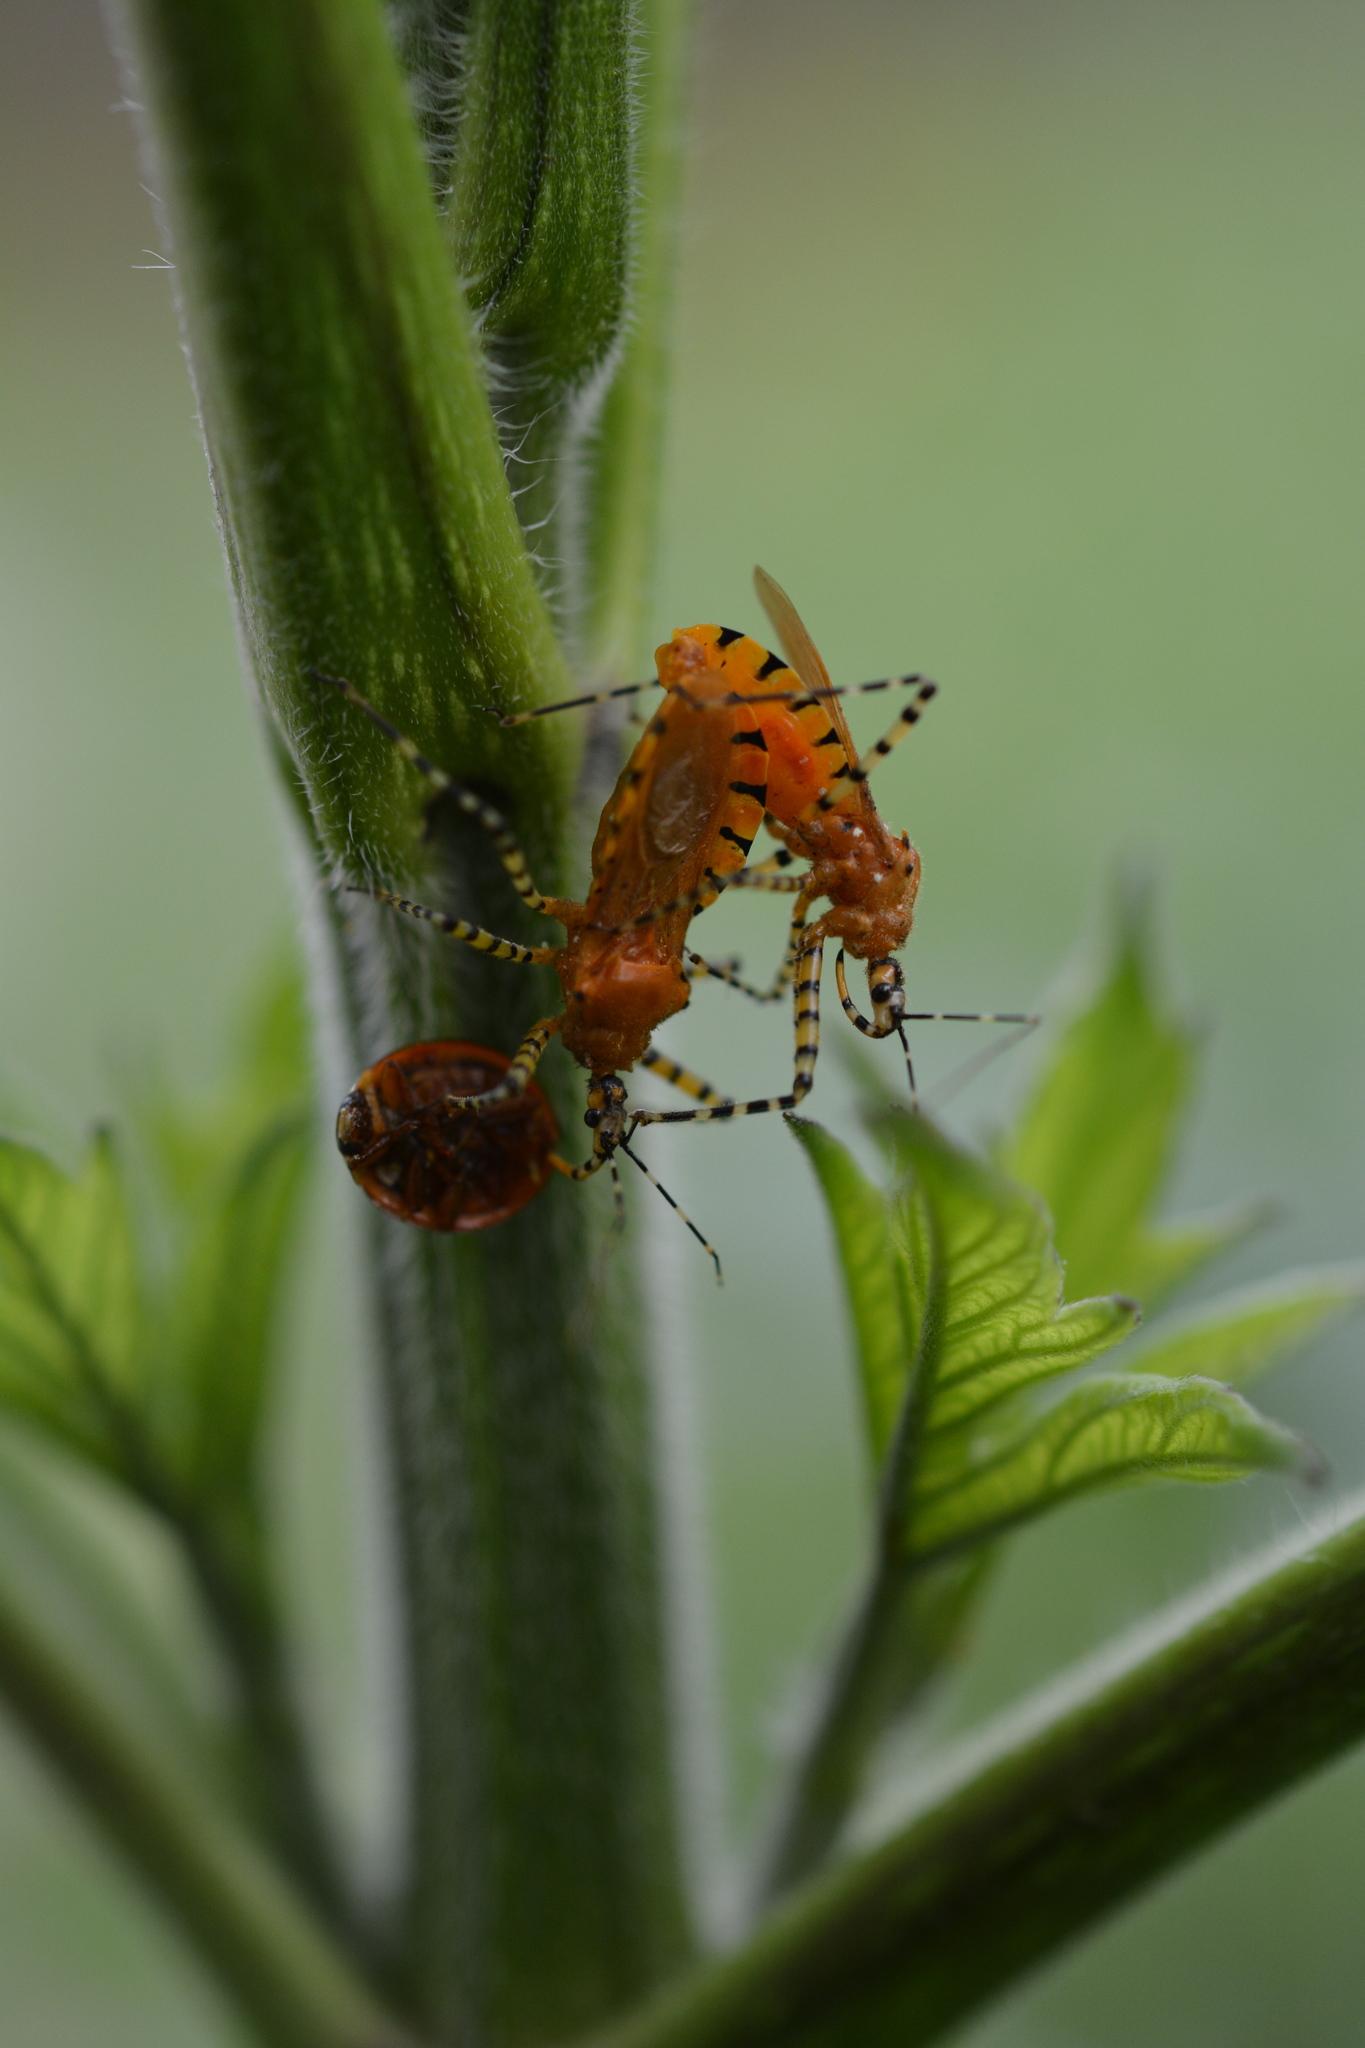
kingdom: Animalia
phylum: Arthropoda
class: Insecta
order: Hemiptera
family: Reduviidae
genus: Pselliopus
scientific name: Pselliopus barberi
